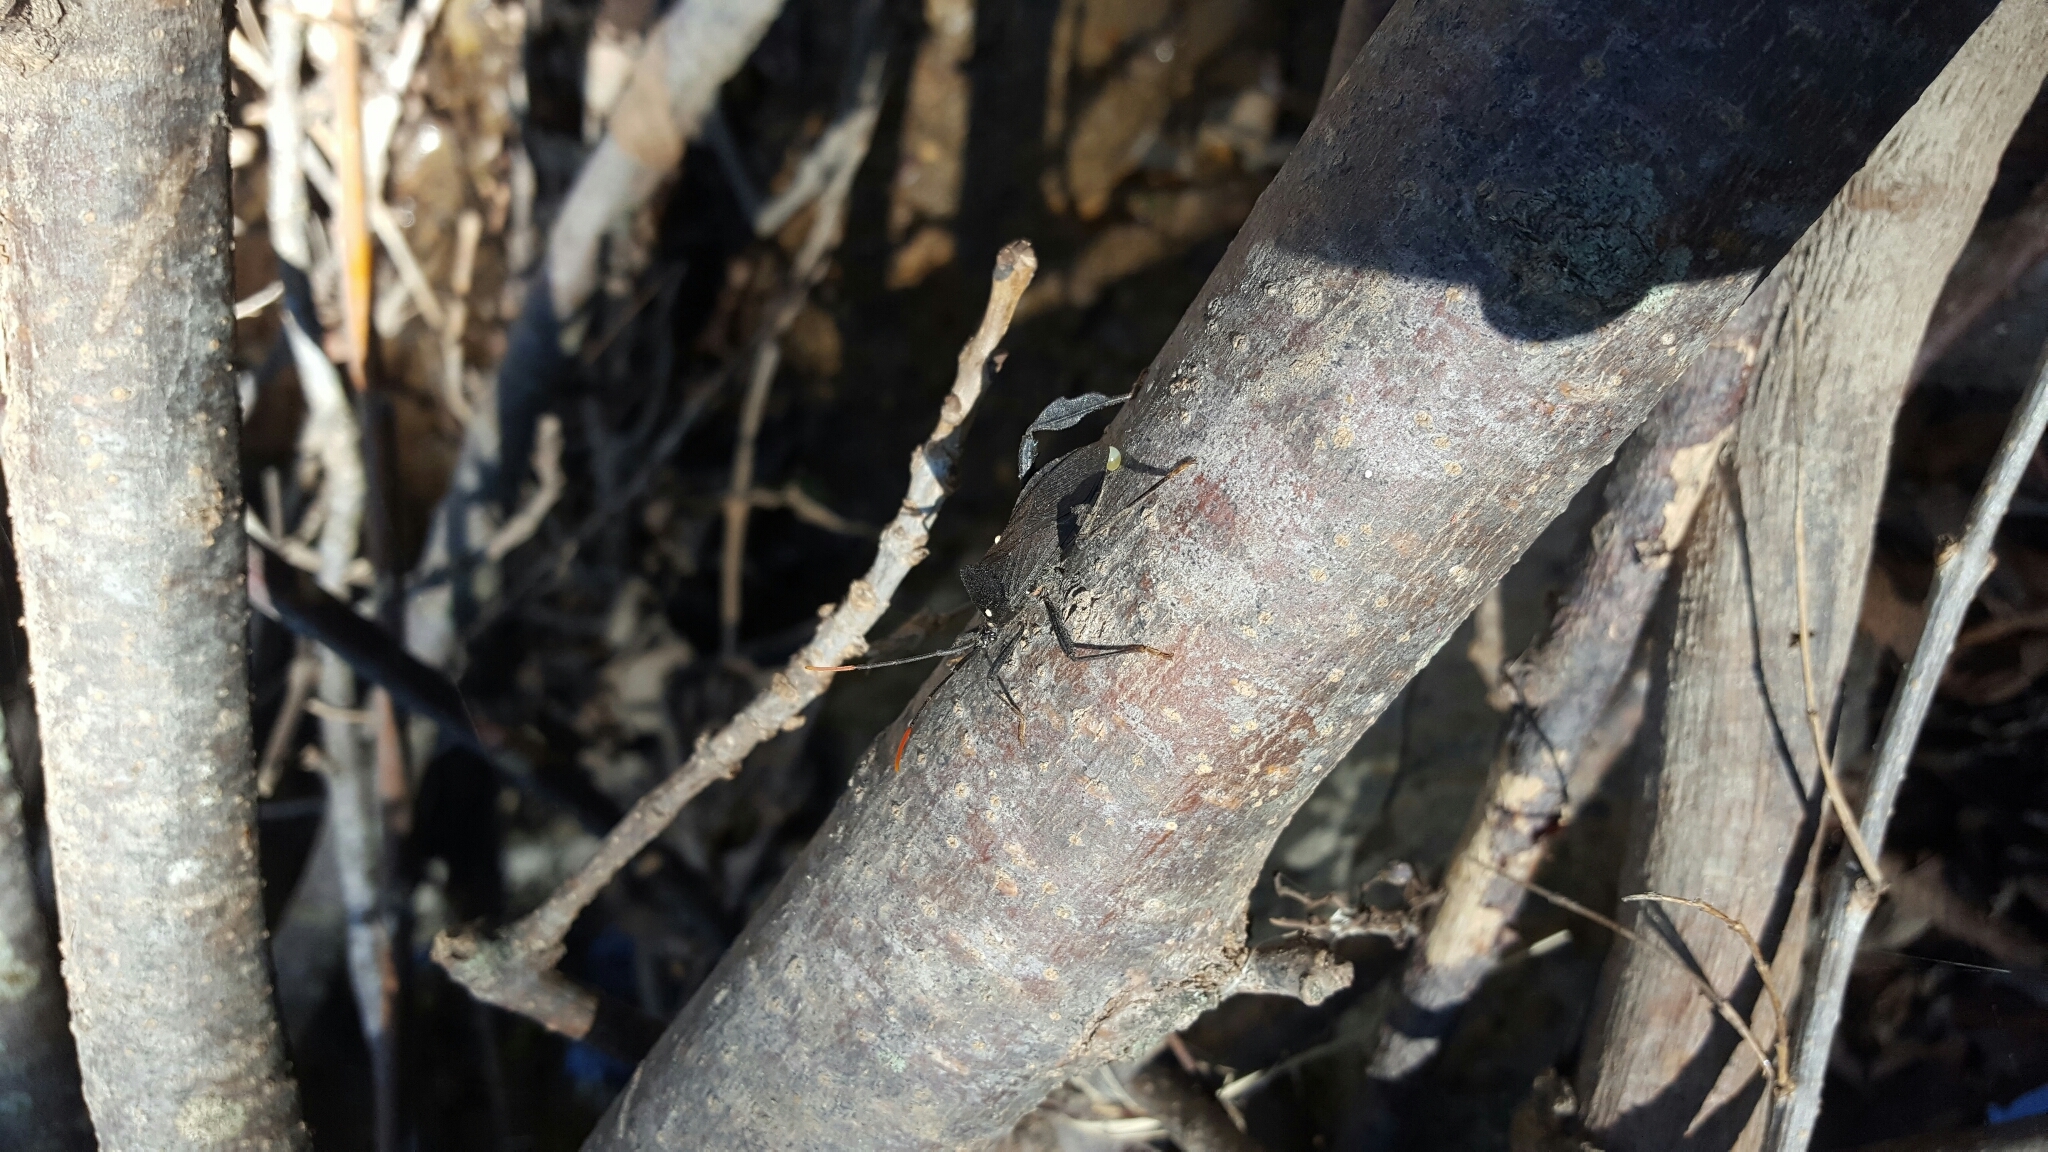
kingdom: Animalia
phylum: Arthropoda
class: Insecta
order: Hemiptera
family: Coreidae
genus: Acanthocephala
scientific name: Acanthocephala terminalis
